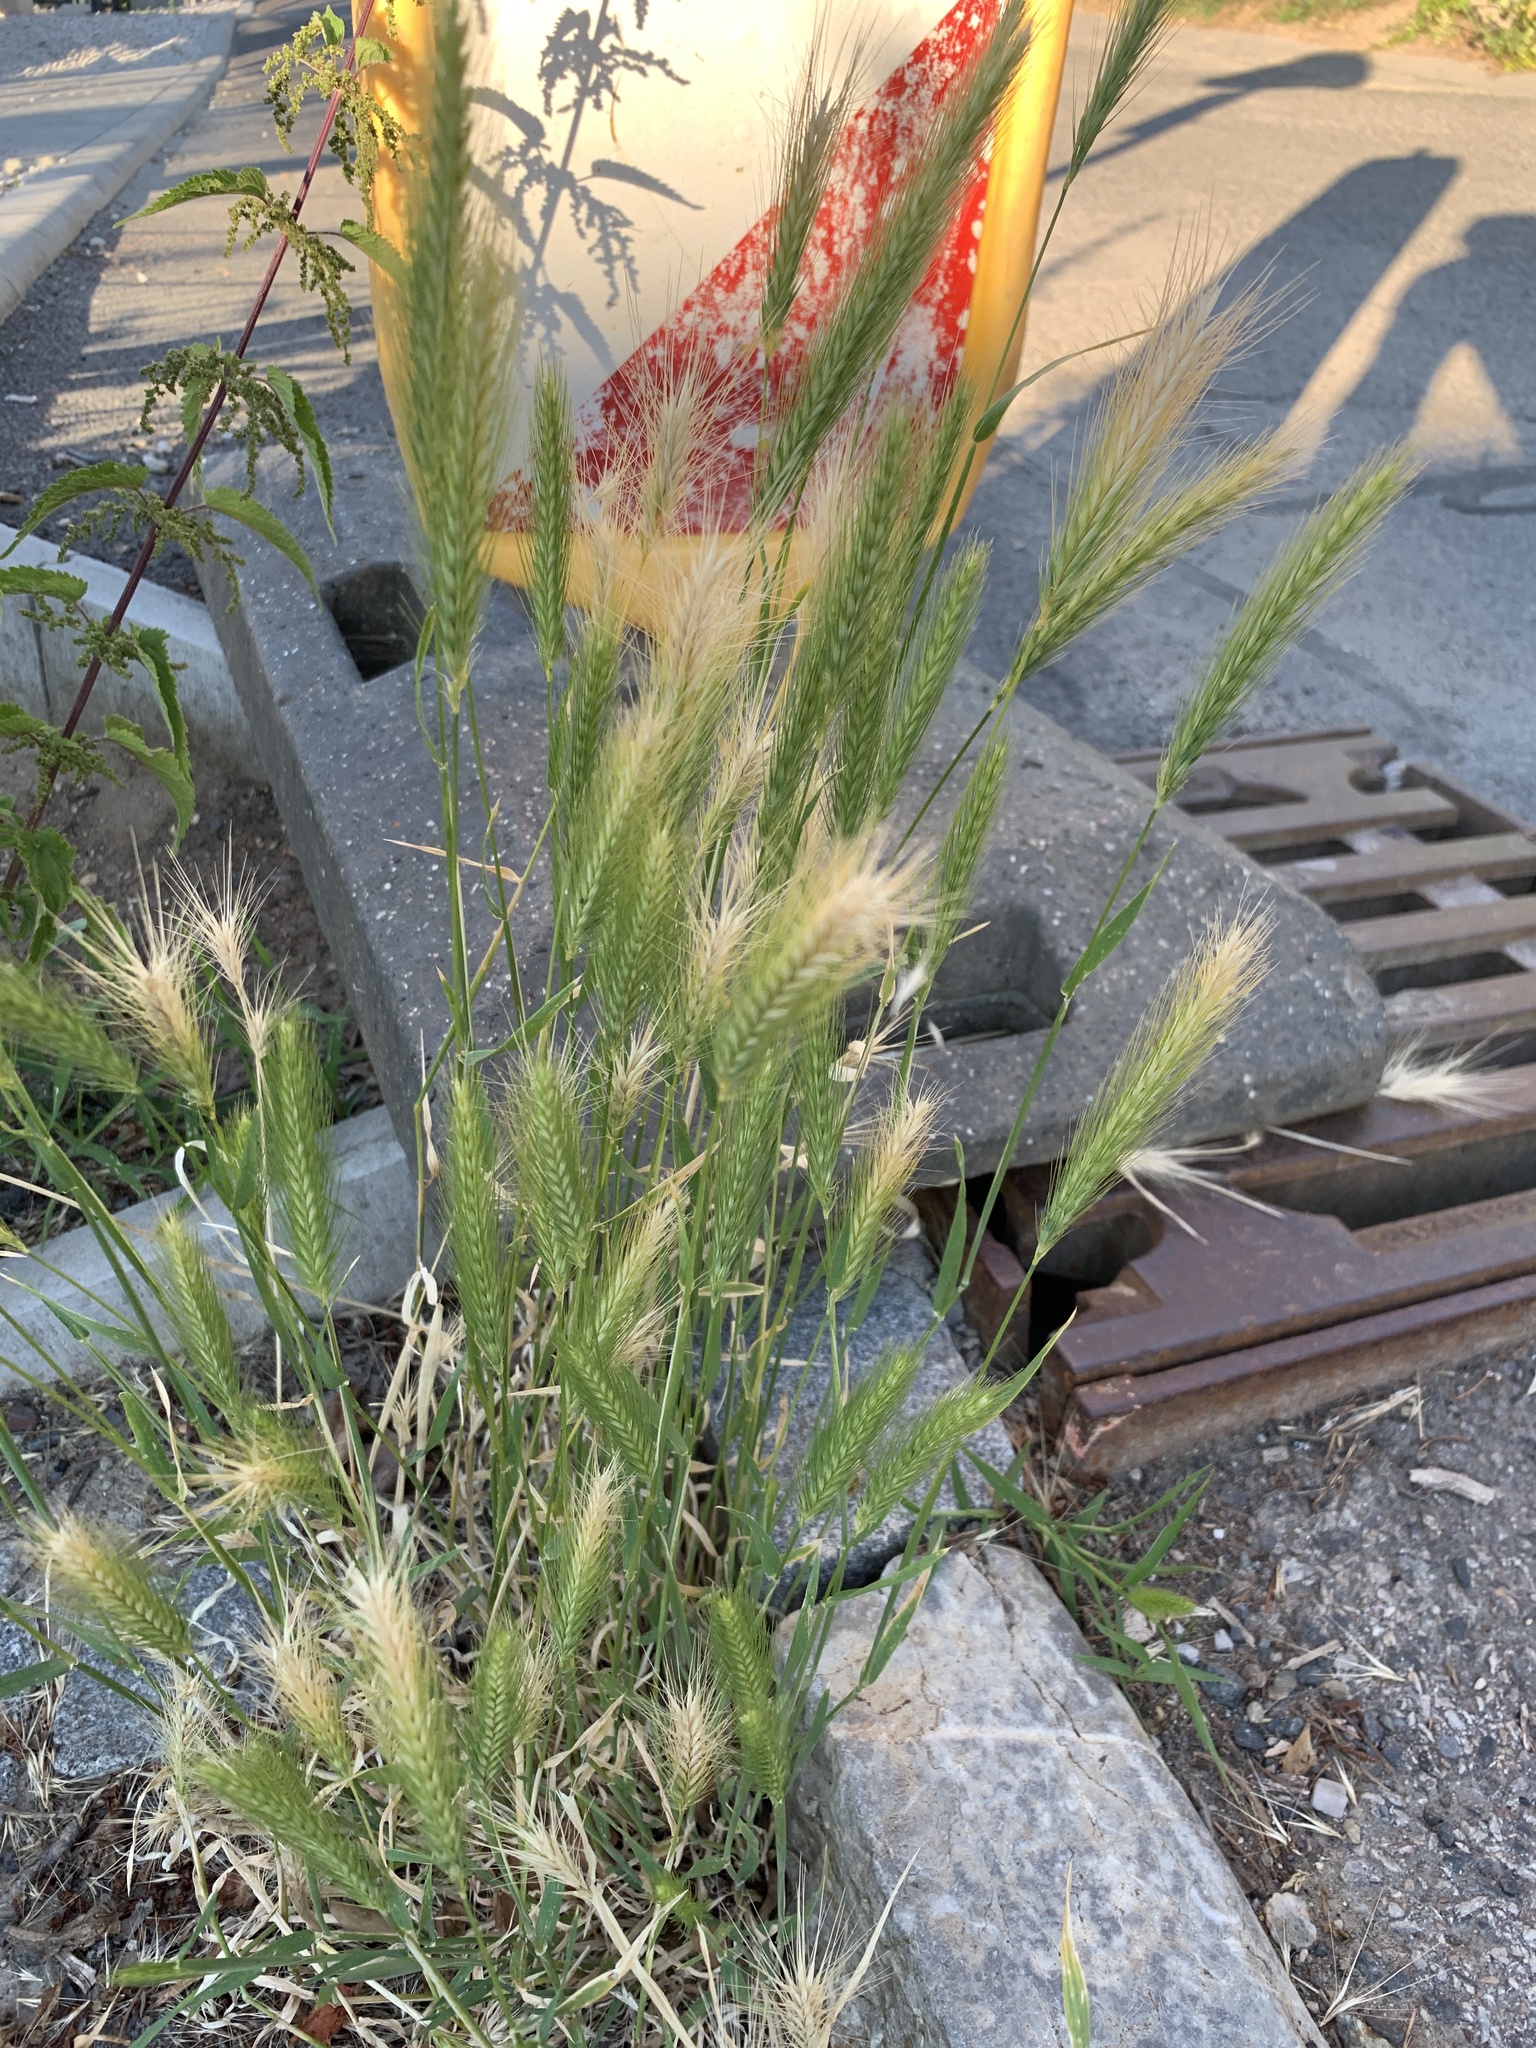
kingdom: Plantae
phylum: Tracheophyta
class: Liliopsida
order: Poales
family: Poaceae
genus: Hordeum
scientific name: Hordeum murinum
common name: Wall barley
